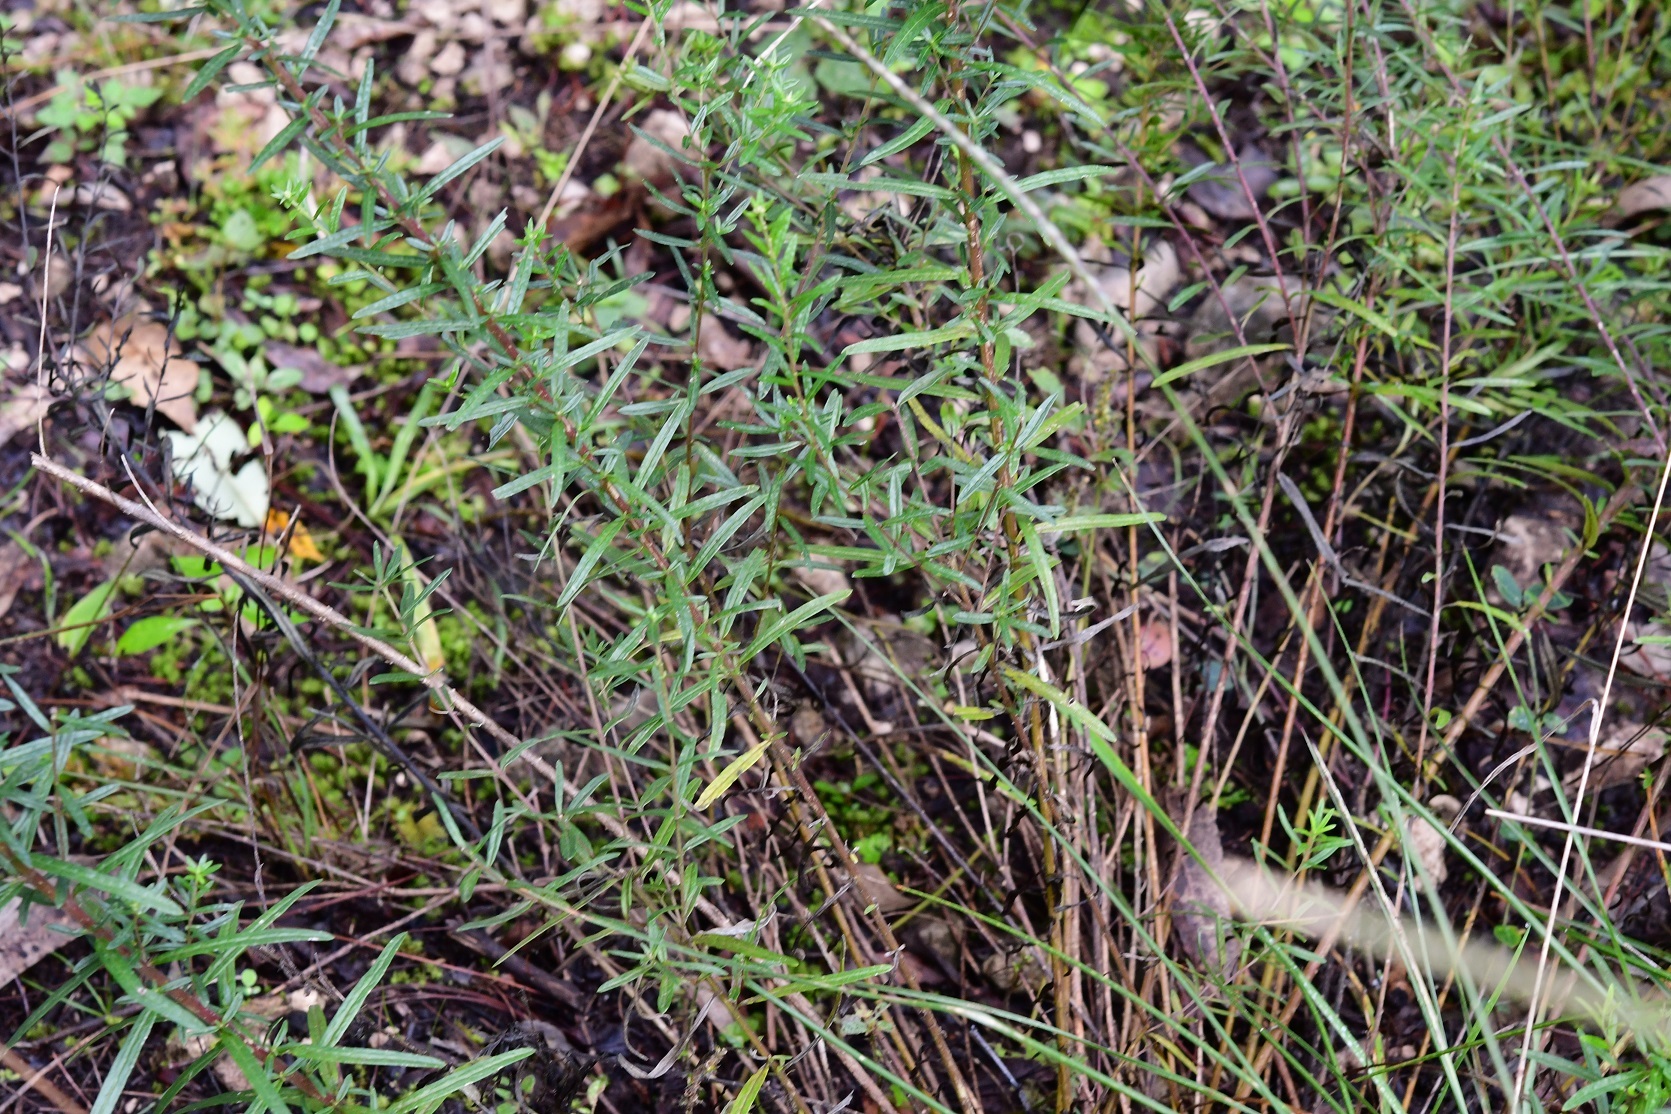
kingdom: Plantae
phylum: Tracheophyta
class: Magnoliopsida
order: Asterales
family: Asteraceae
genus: Brickellia
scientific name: Brickellia scoparia
